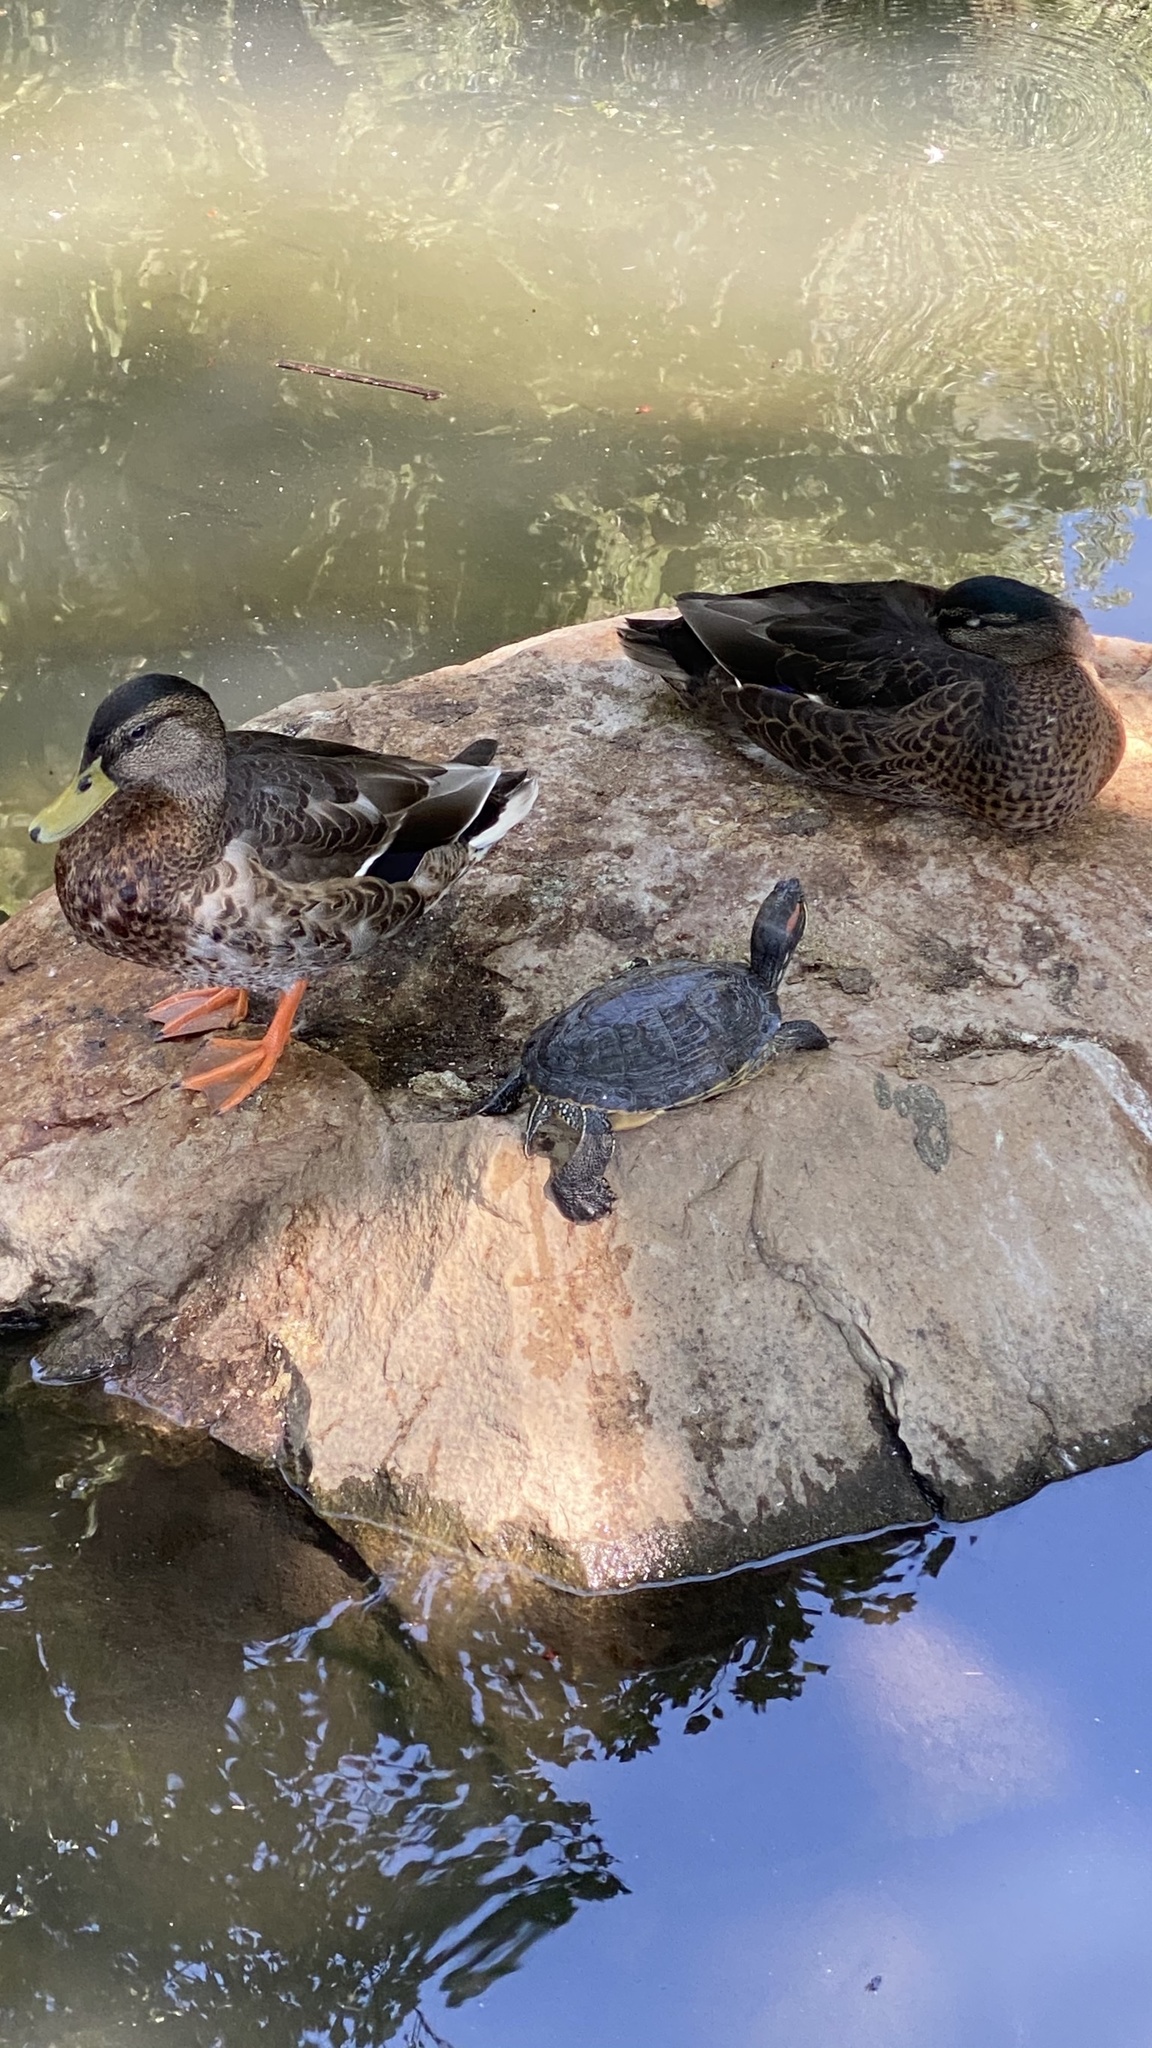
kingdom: Animalia
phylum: Chordata
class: Aves
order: Anseriformes
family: Anatidae
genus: Anas
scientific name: Anas platyrhynchos
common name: Mallard
